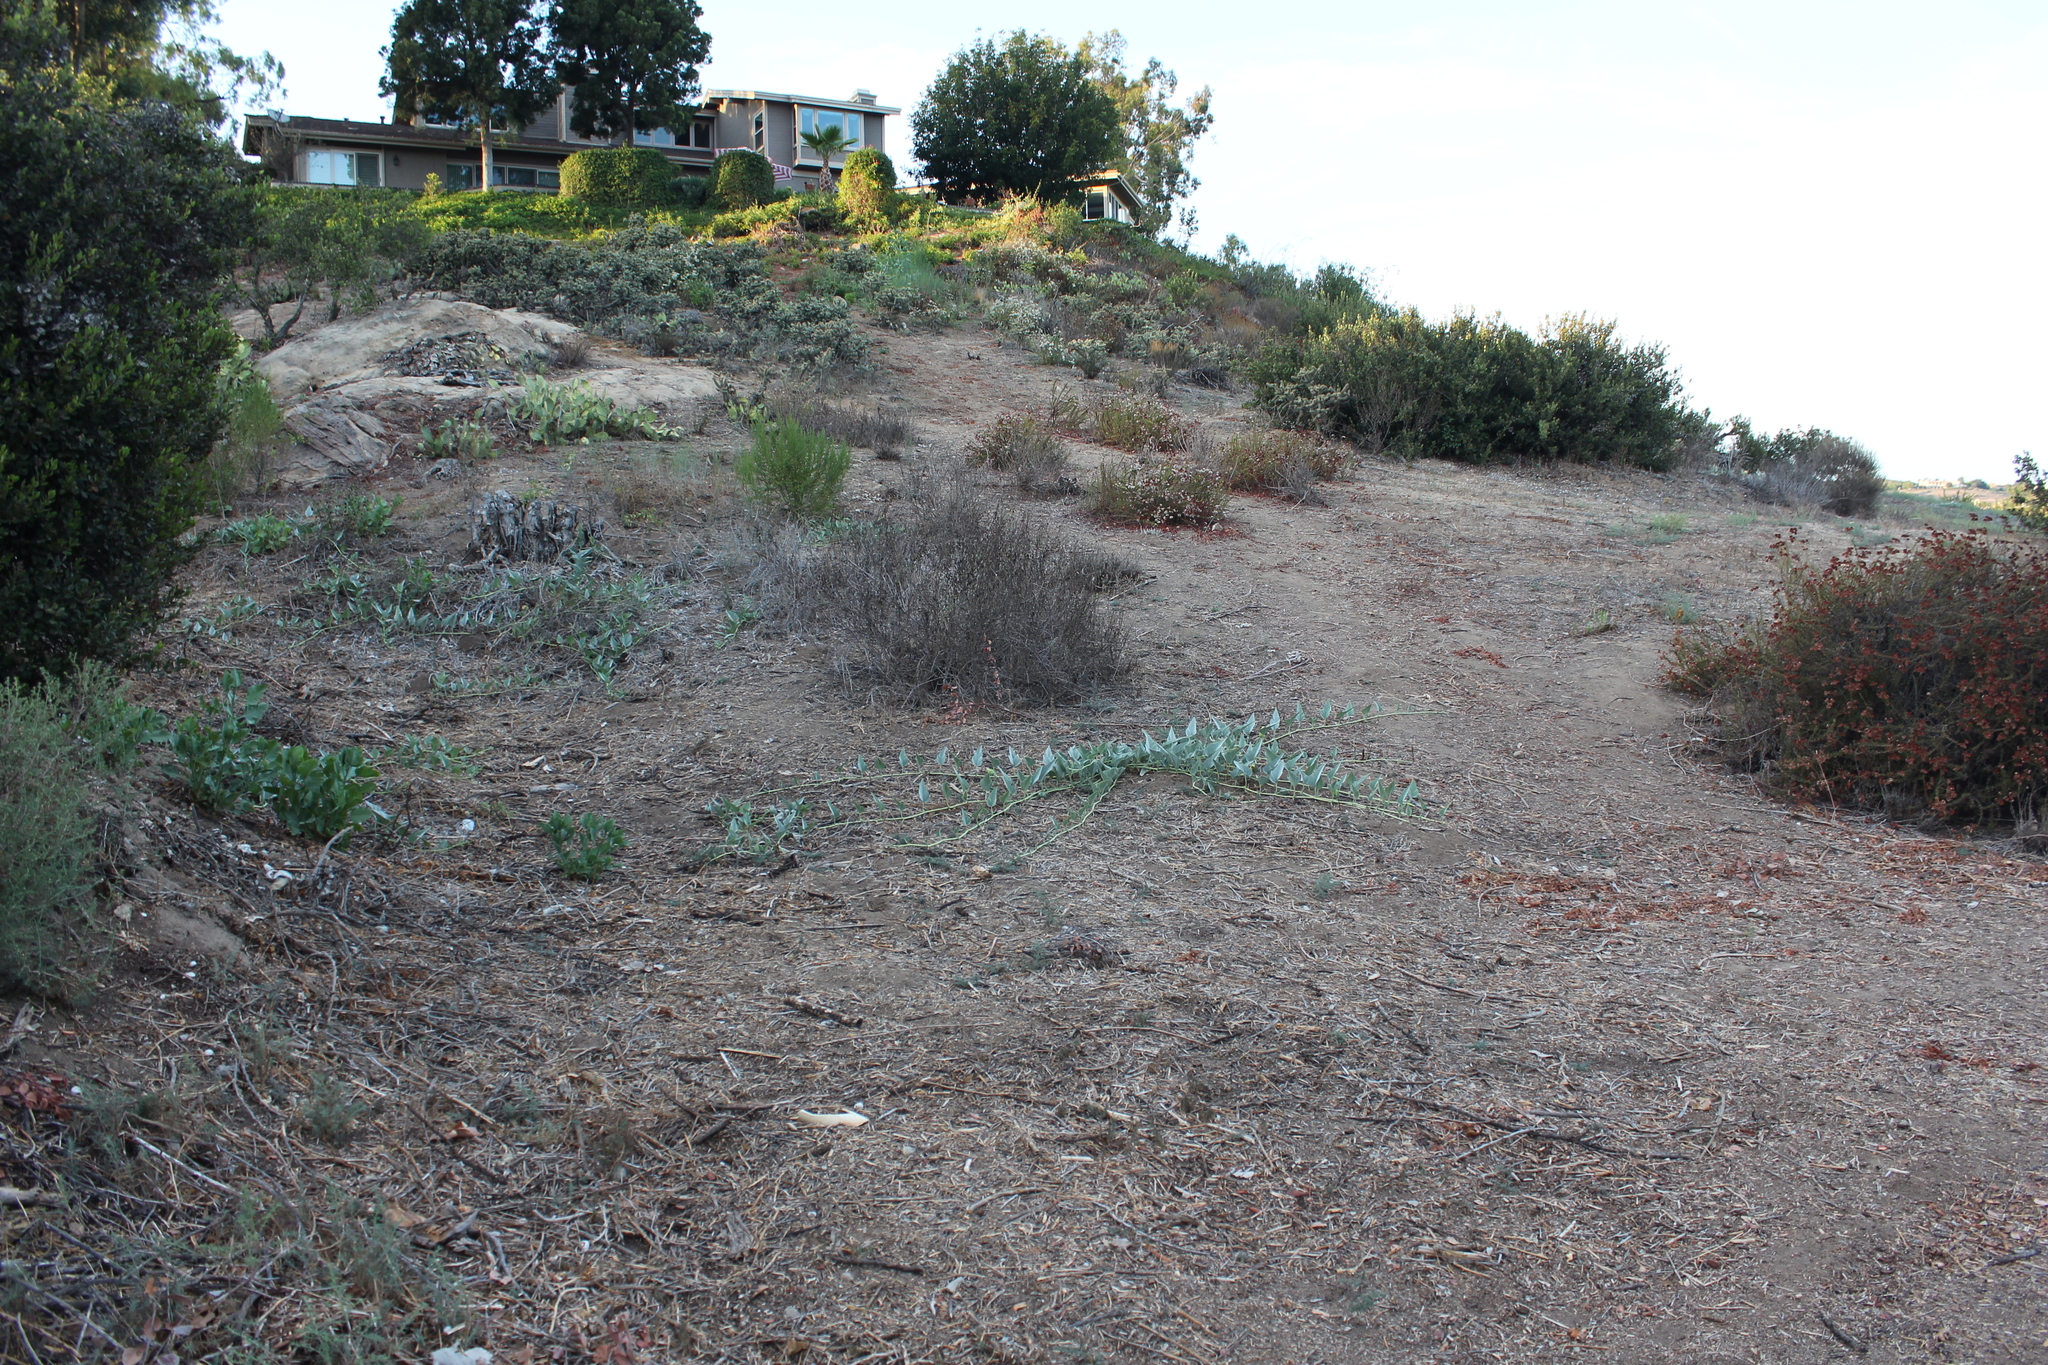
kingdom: Plantae
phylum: Tracheophyta
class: Magnoliopsida
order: Cucurbitales
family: Cucurbitaceae
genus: Cucurbita
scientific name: Cucurbita foetidissima
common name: Buffalo gourd
